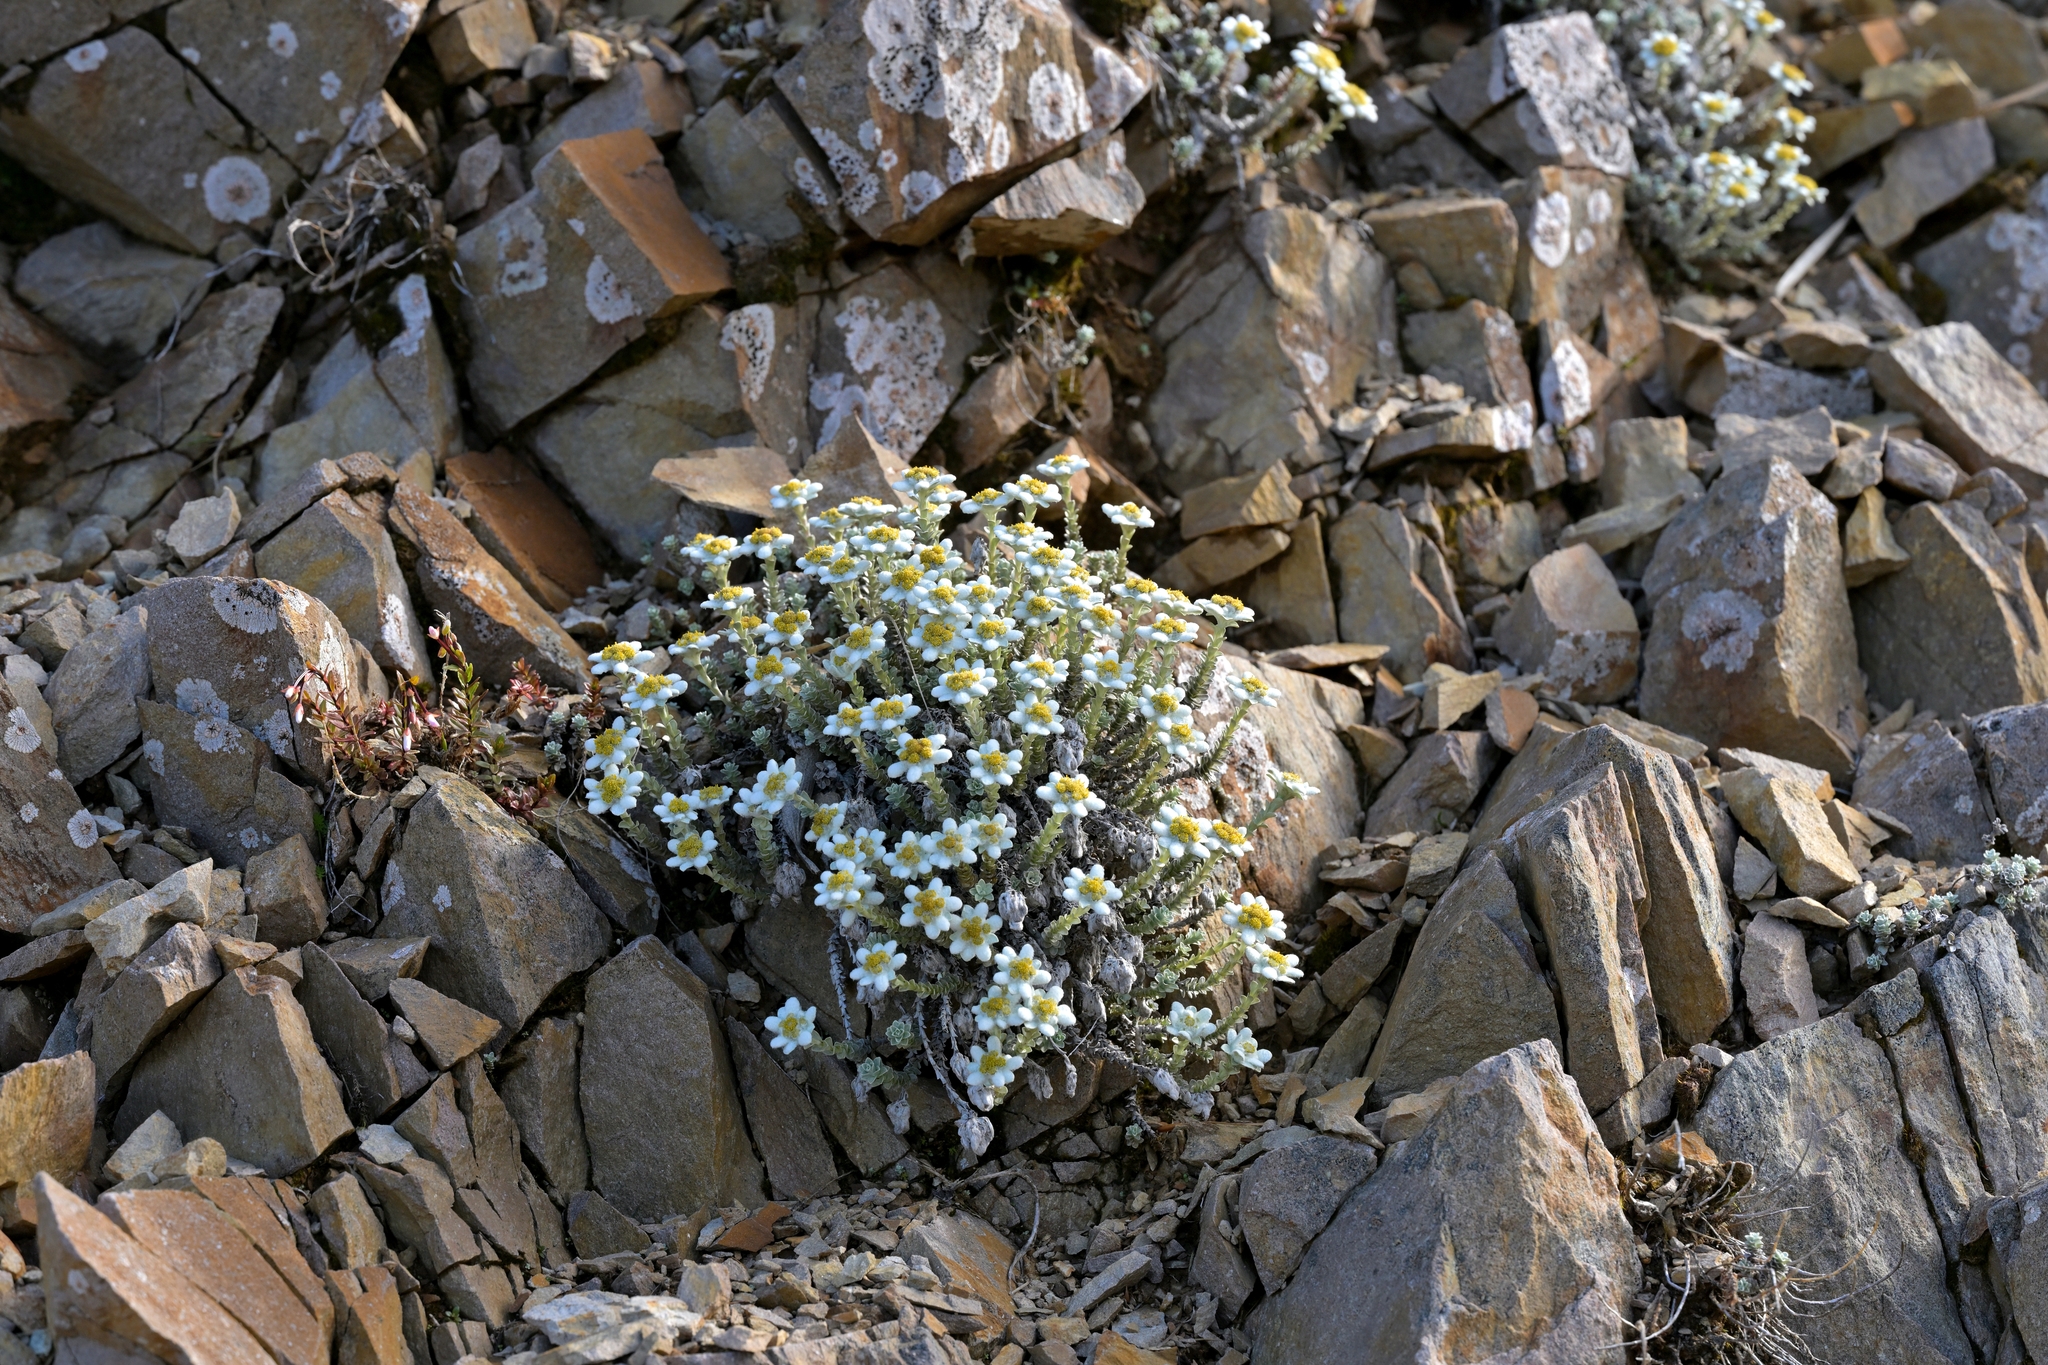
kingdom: Plantae
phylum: Tracheophyta
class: Magnoliopsida
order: Asterales
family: Asteraceae
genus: Leucogenes
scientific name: Leucogenes grandiceps
